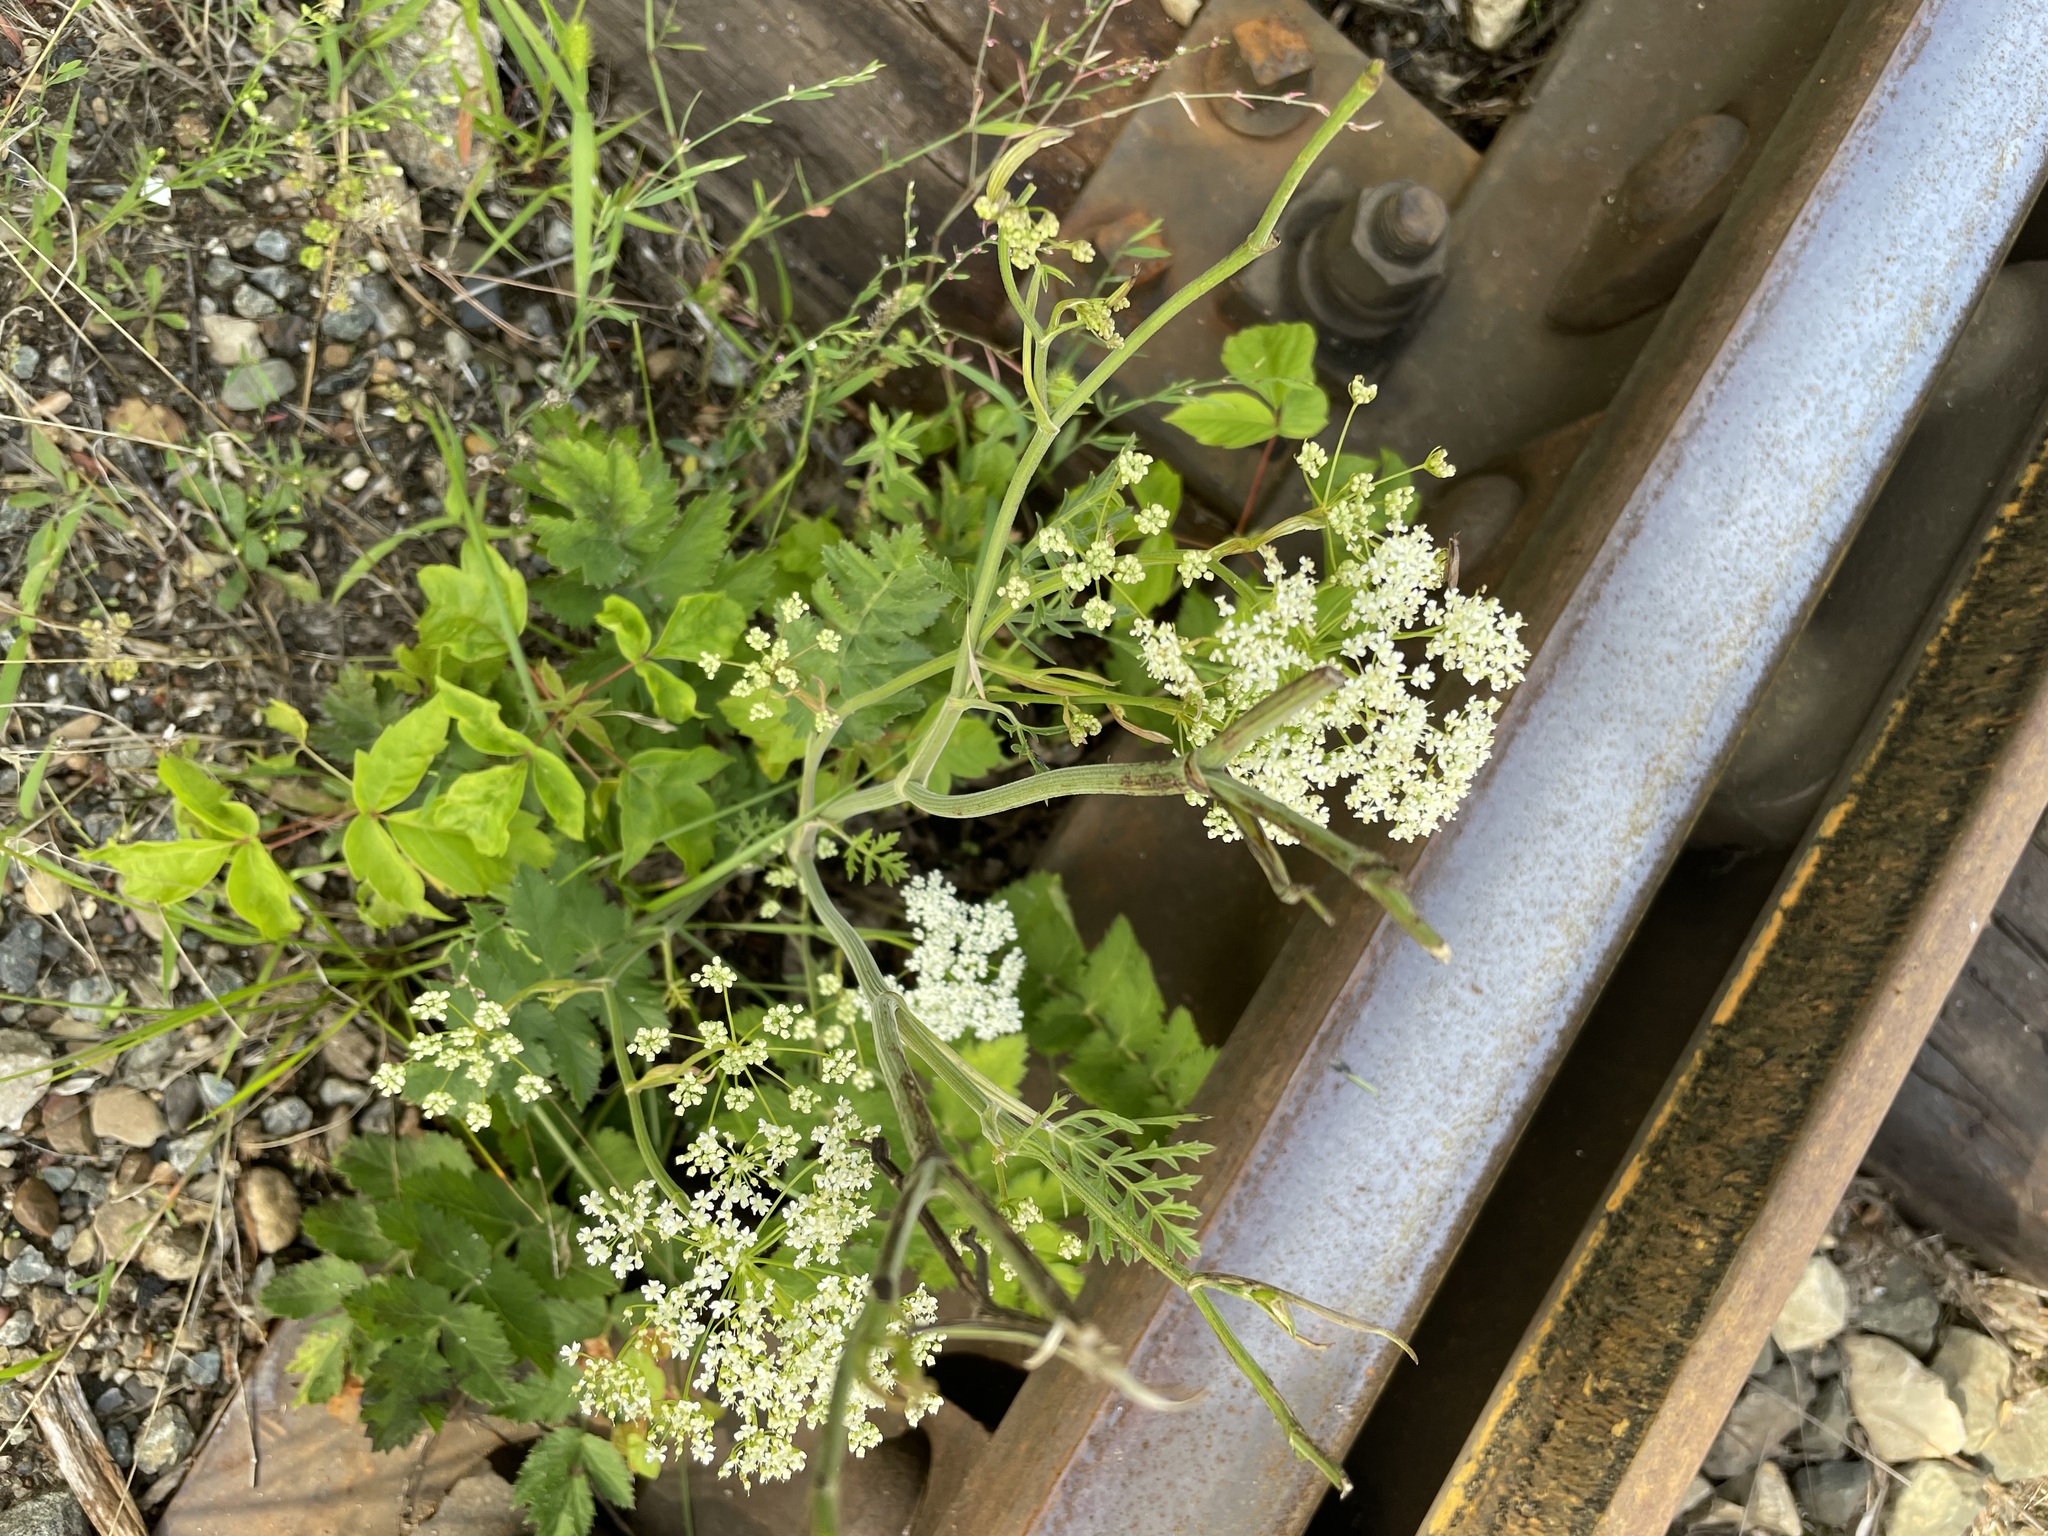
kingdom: Plantae
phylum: Tracheophyta
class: Magnoliopsida
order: Apiales
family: Apiaceae
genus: Pimpinella
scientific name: Pimpinella saxifraga
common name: Burnet-saxifrage
